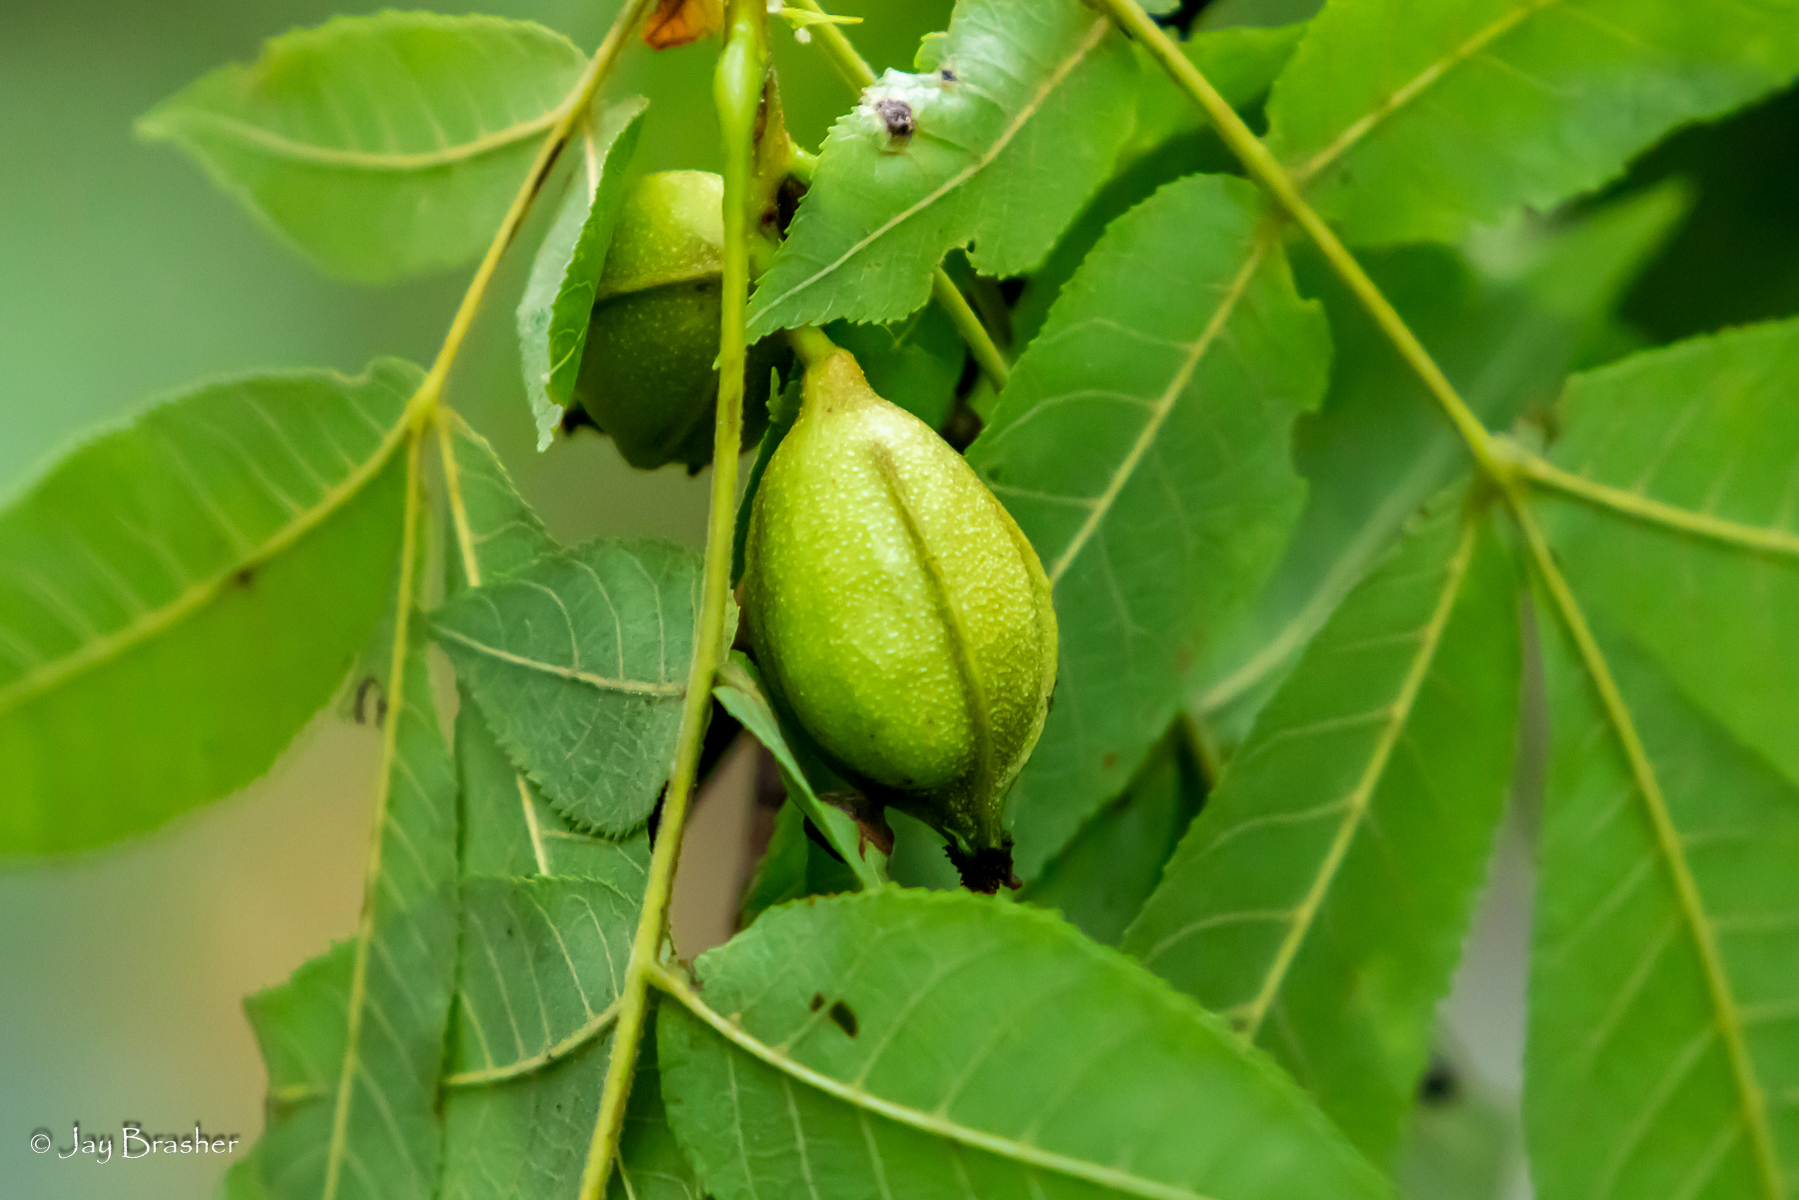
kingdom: Plantae
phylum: Tracheophyta
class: Magnoliopsida
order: Fagales
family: Juglandaceae
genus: Carya
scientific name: Carya cordiformis
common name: Bitternut hickory
